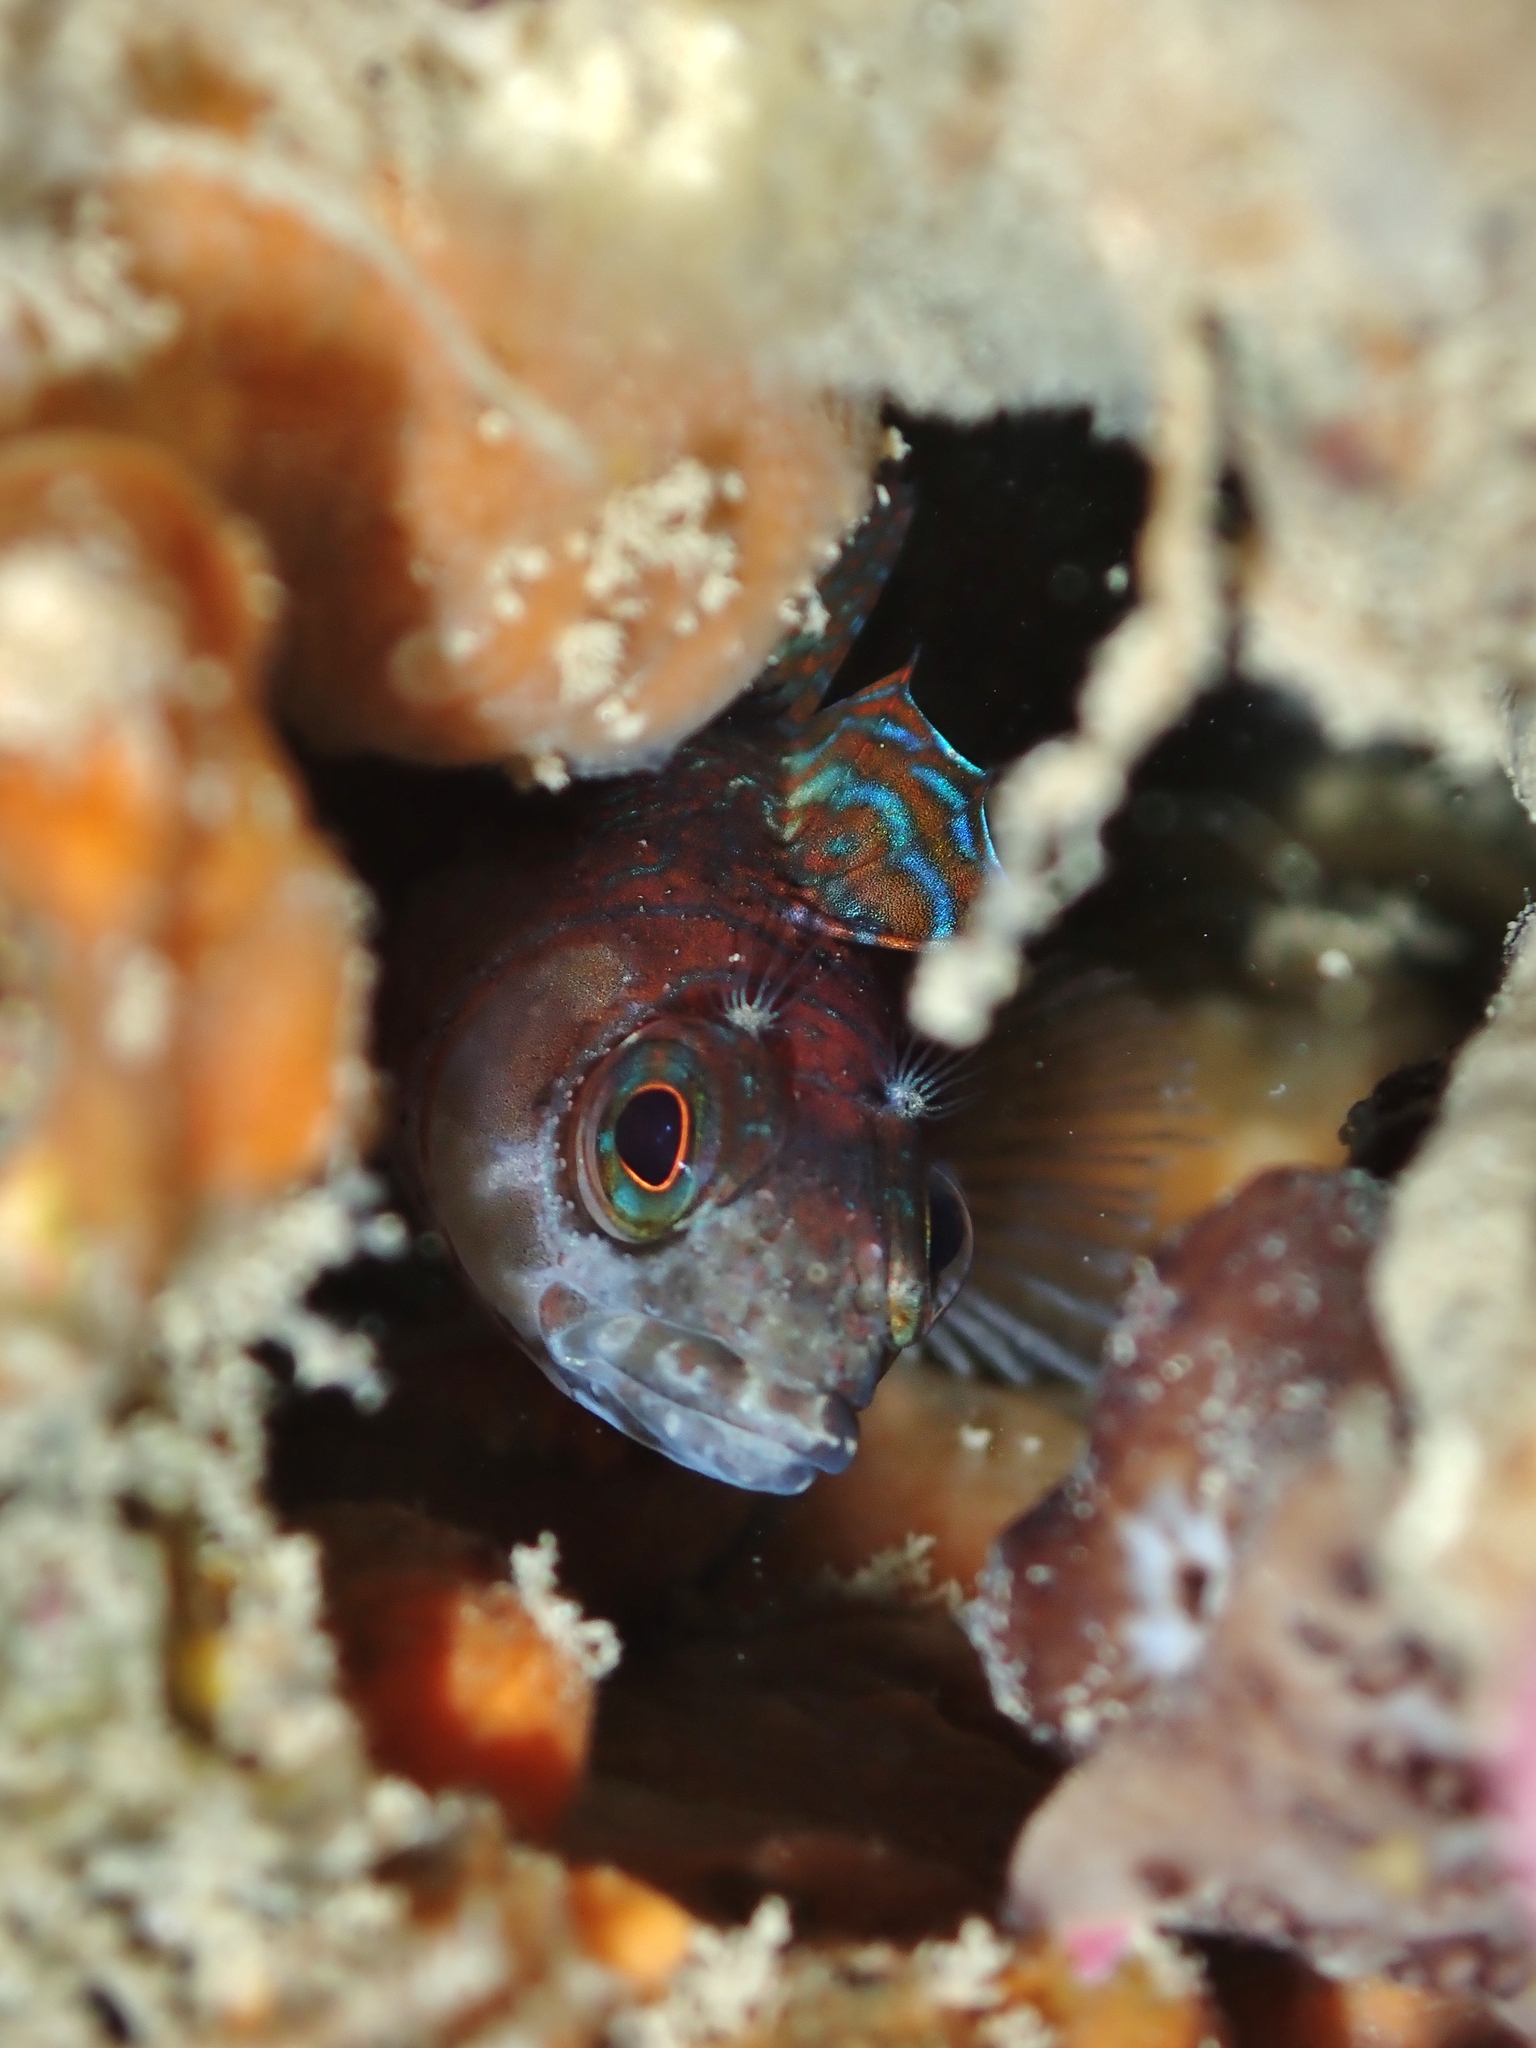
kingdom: Animalia
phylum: Chordata
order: Perciformes
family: Tripterygiidae
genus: Ruanoho
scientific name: Ruanoho whero
